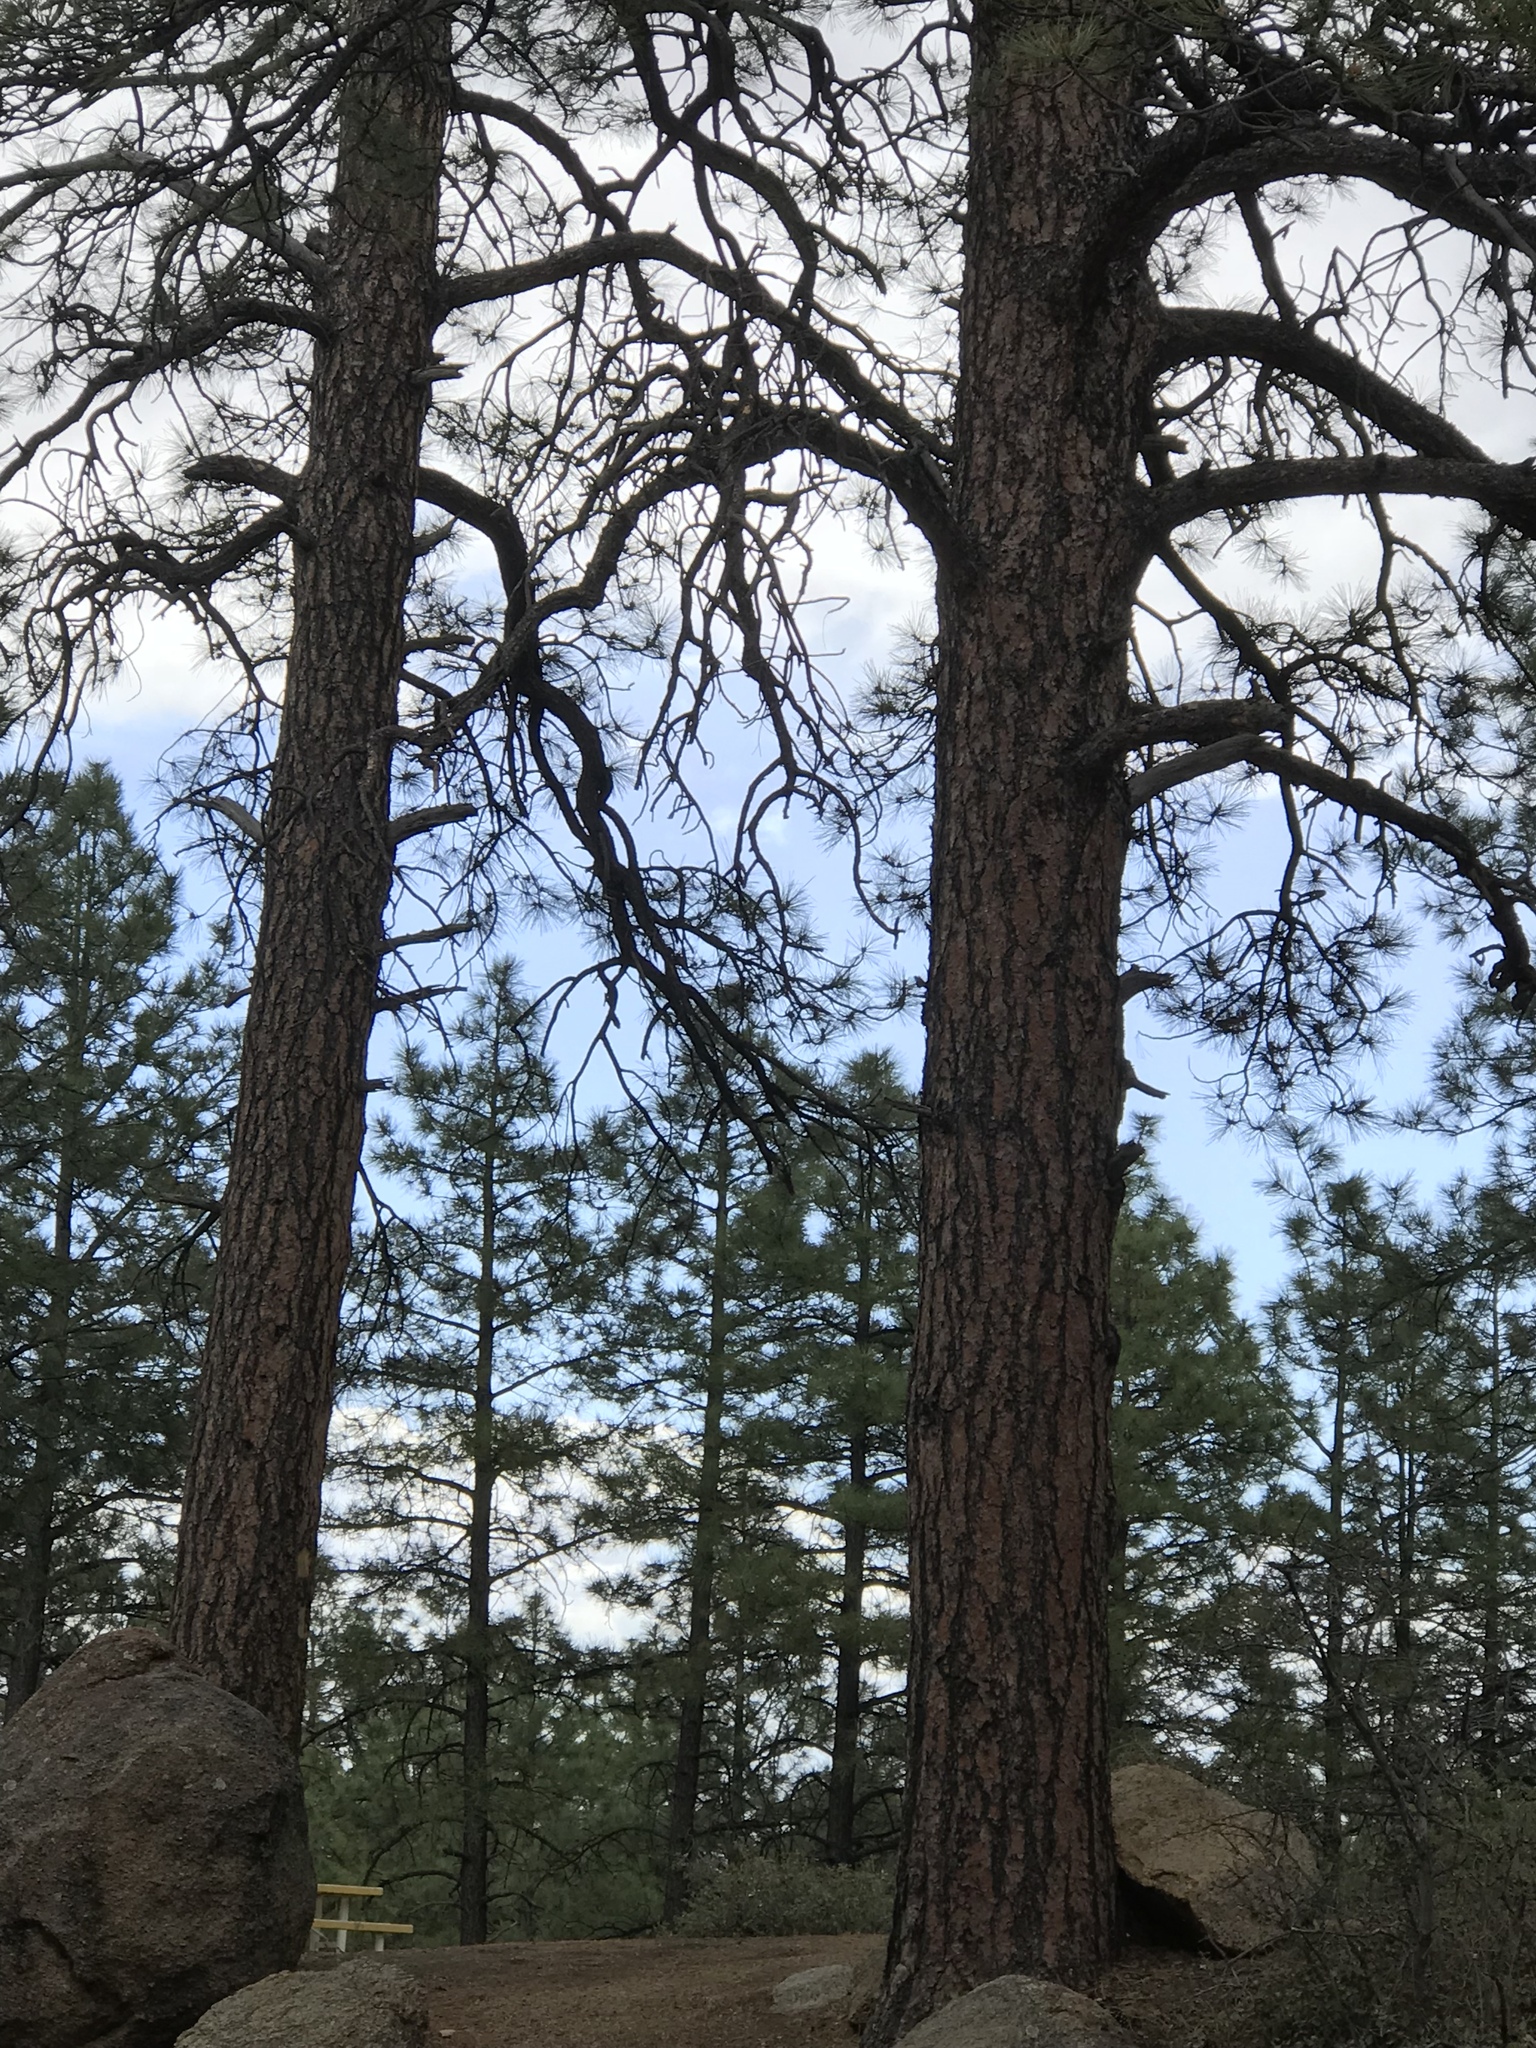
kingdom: Plantae
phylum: Tracheophyta
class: Pinopsida
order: Pinales
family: Pinaceae
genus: Pinus
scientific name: Pinus ponderosa
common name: Western yellow-pine
